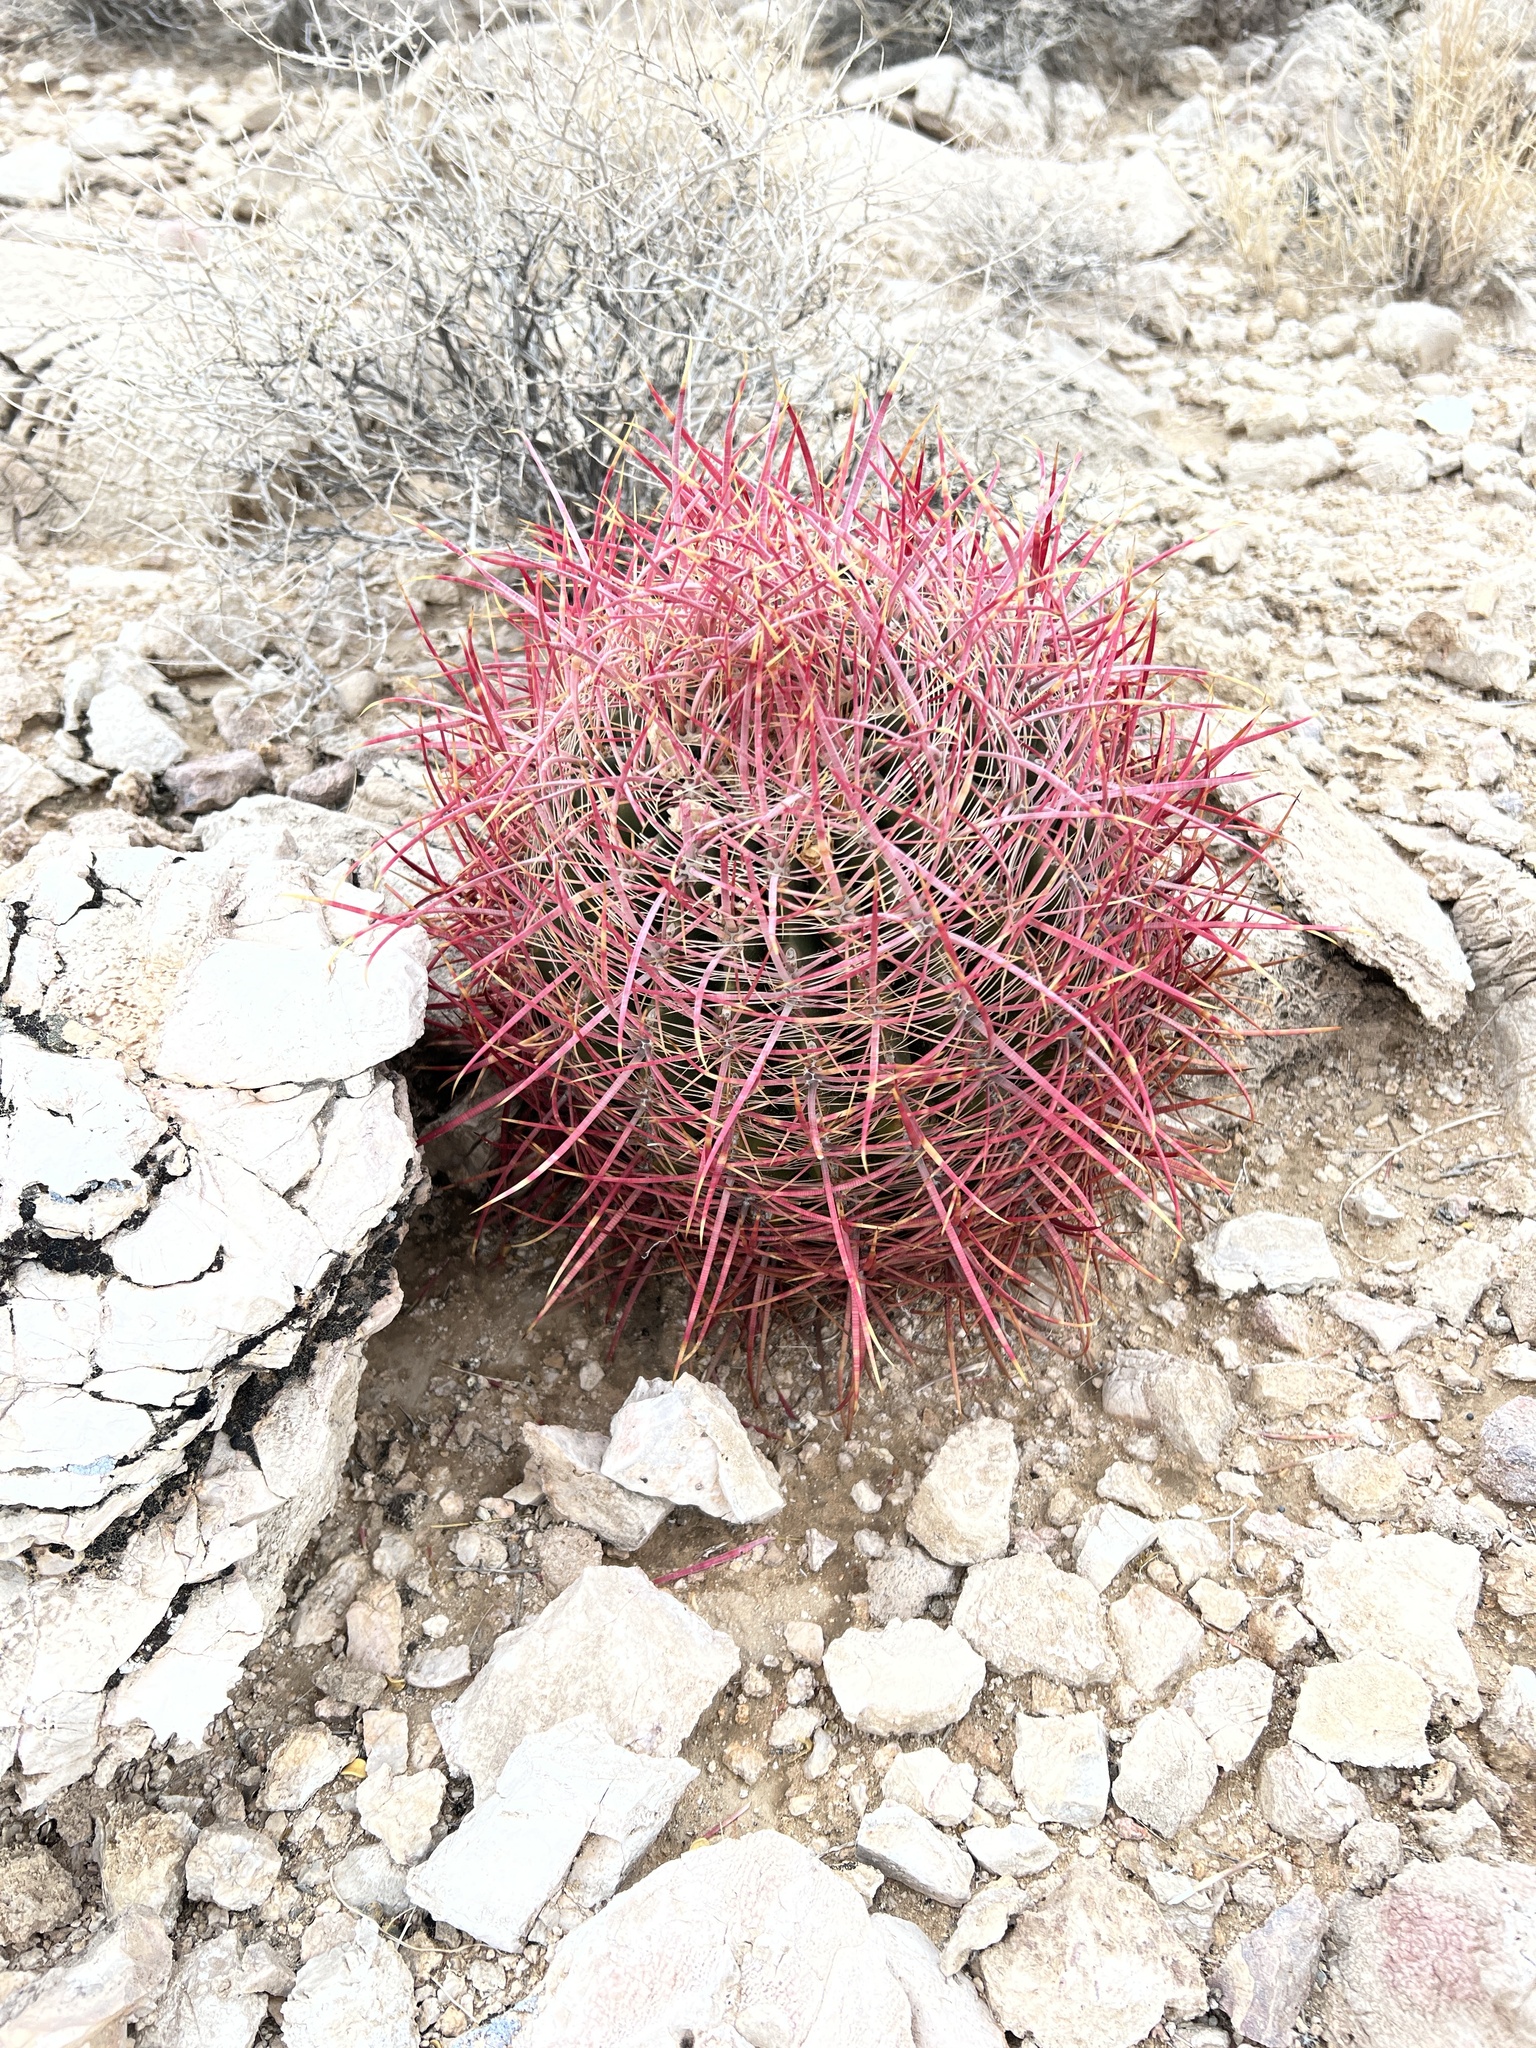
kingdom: Plantae
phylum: Tracheophyta
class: Magnoliopsida
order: Caryophyllales
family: Cactaceae
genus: Ferocactus
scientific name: Ferocactus cylindraceus
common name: California barrel cactus
